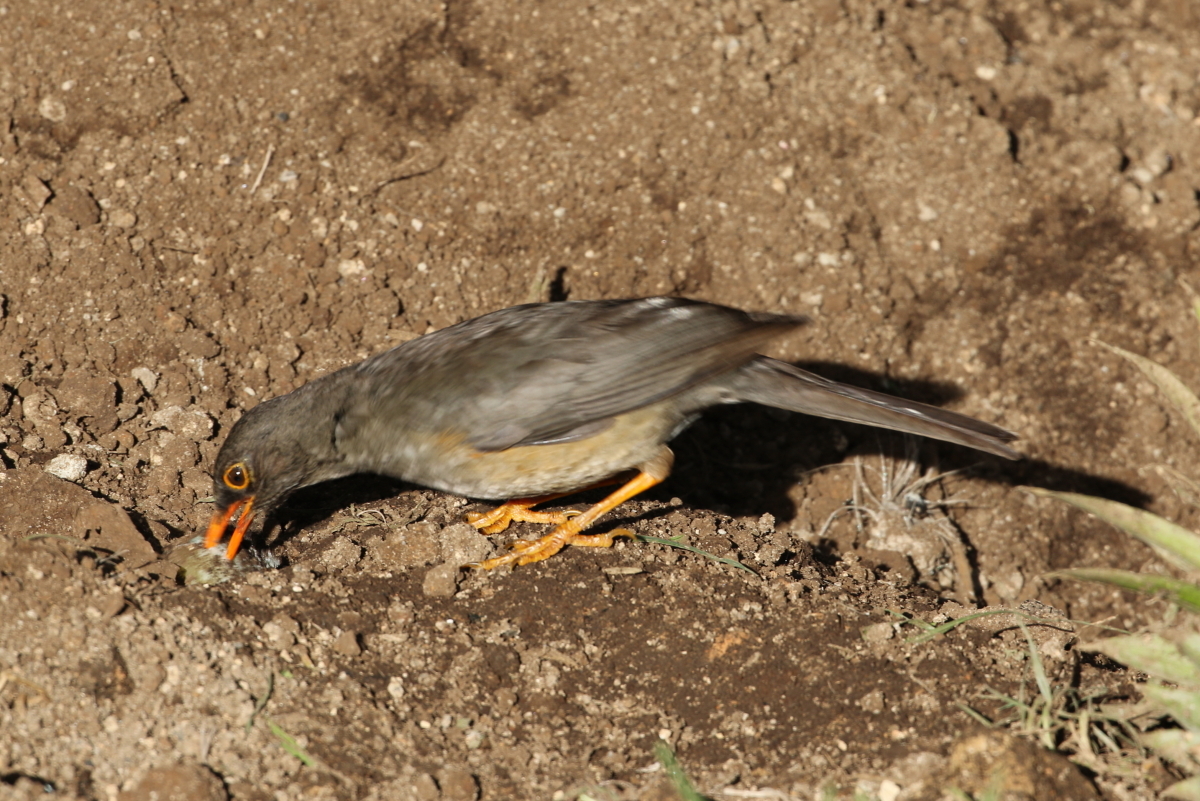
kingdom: Animalia
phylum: Chordata
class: Aves
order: Passeriformes
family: Turdidae
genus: Turdus
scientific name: Turdus abyssinicus
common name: Abyssinian thrush
